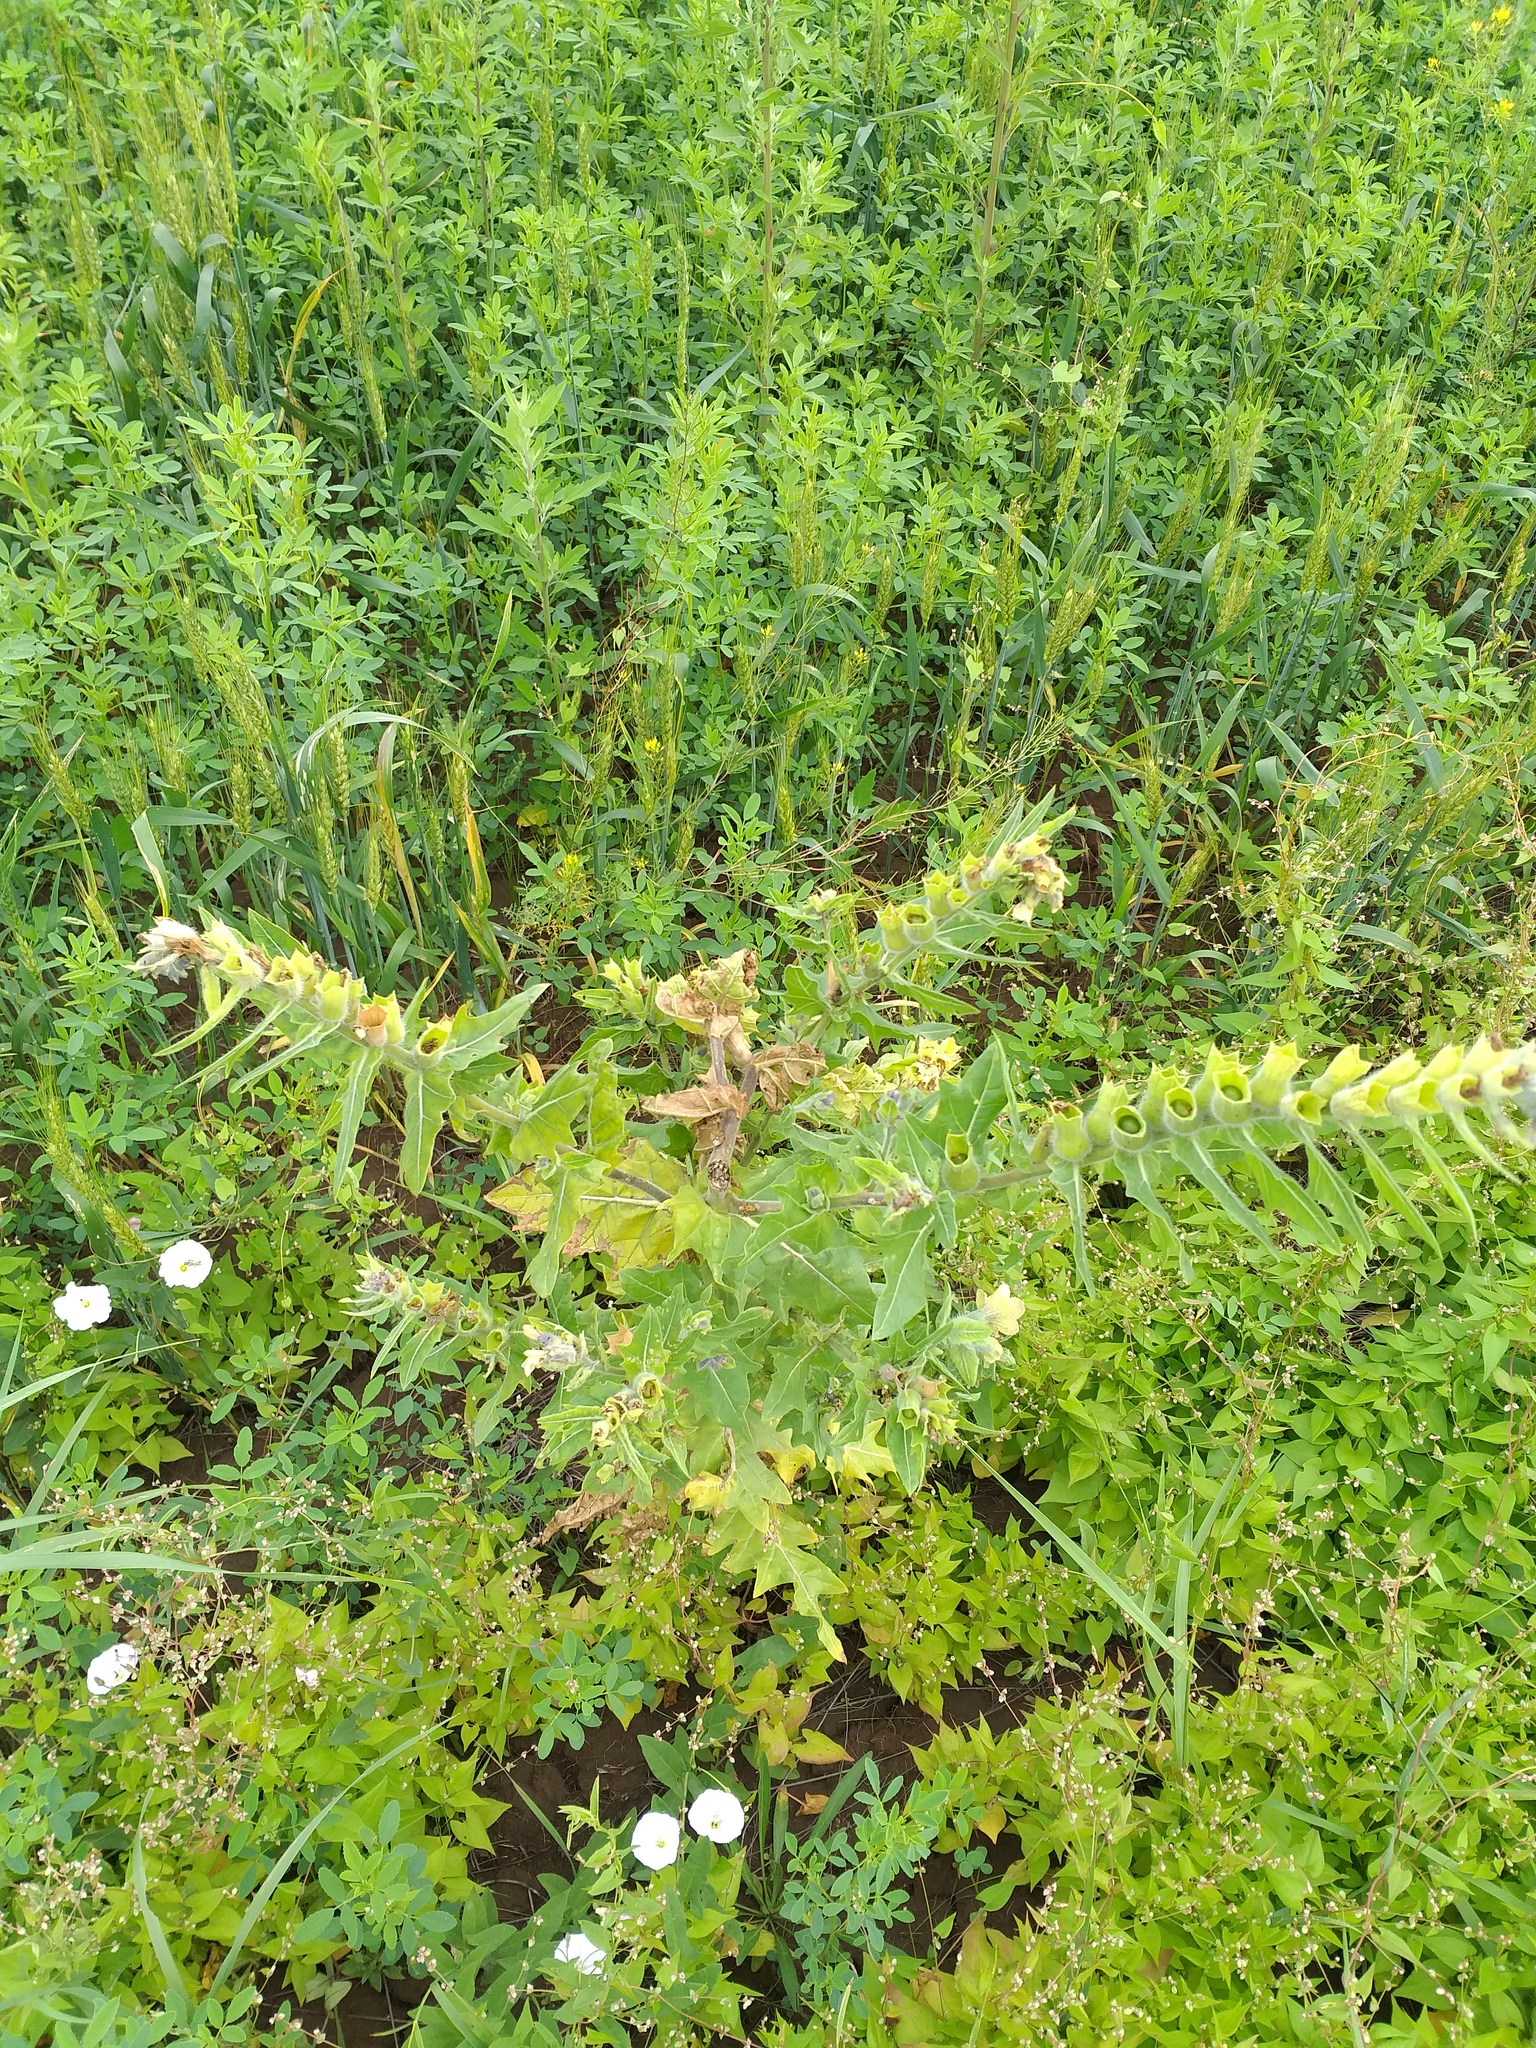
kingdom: Plantae
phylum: Tracheophyta
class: Magnoliopsida
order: Solanales
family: Solanaceae
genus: Hyoscyamus
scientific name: Hyoscyamus niger
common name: Henbane
